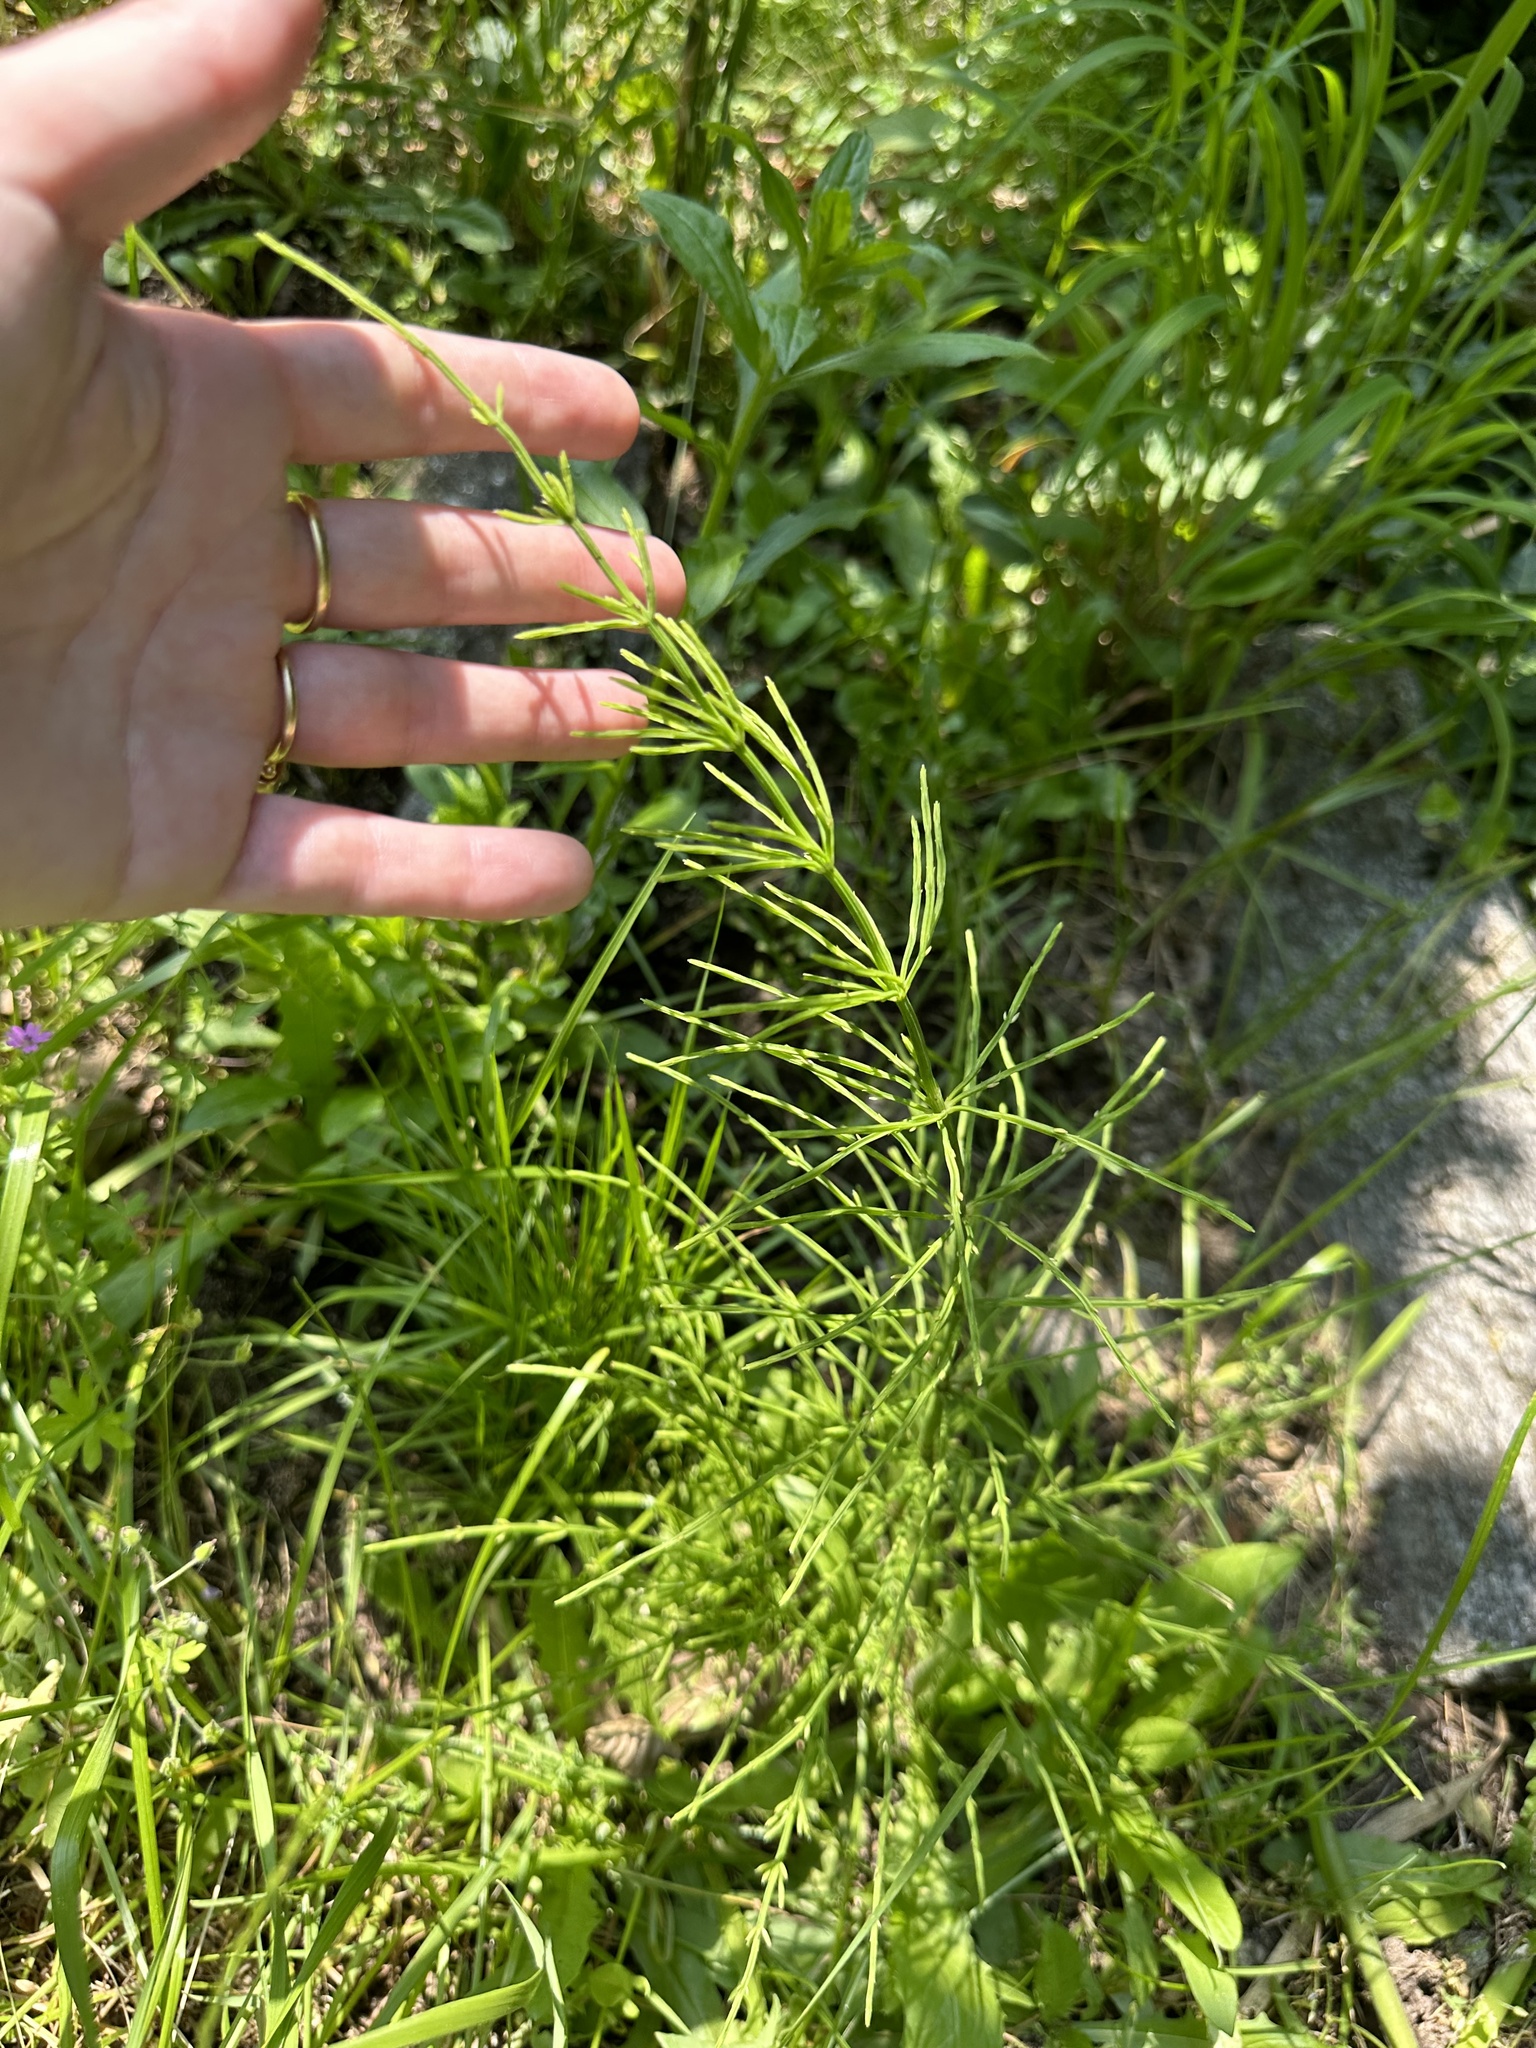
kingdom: Plantae
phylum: Tracheophyta
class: Polypodiopsida
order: Equisetales
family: Equisetaceae
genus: Equisetum
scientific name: Equisetum arvense
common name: Field horsetail
